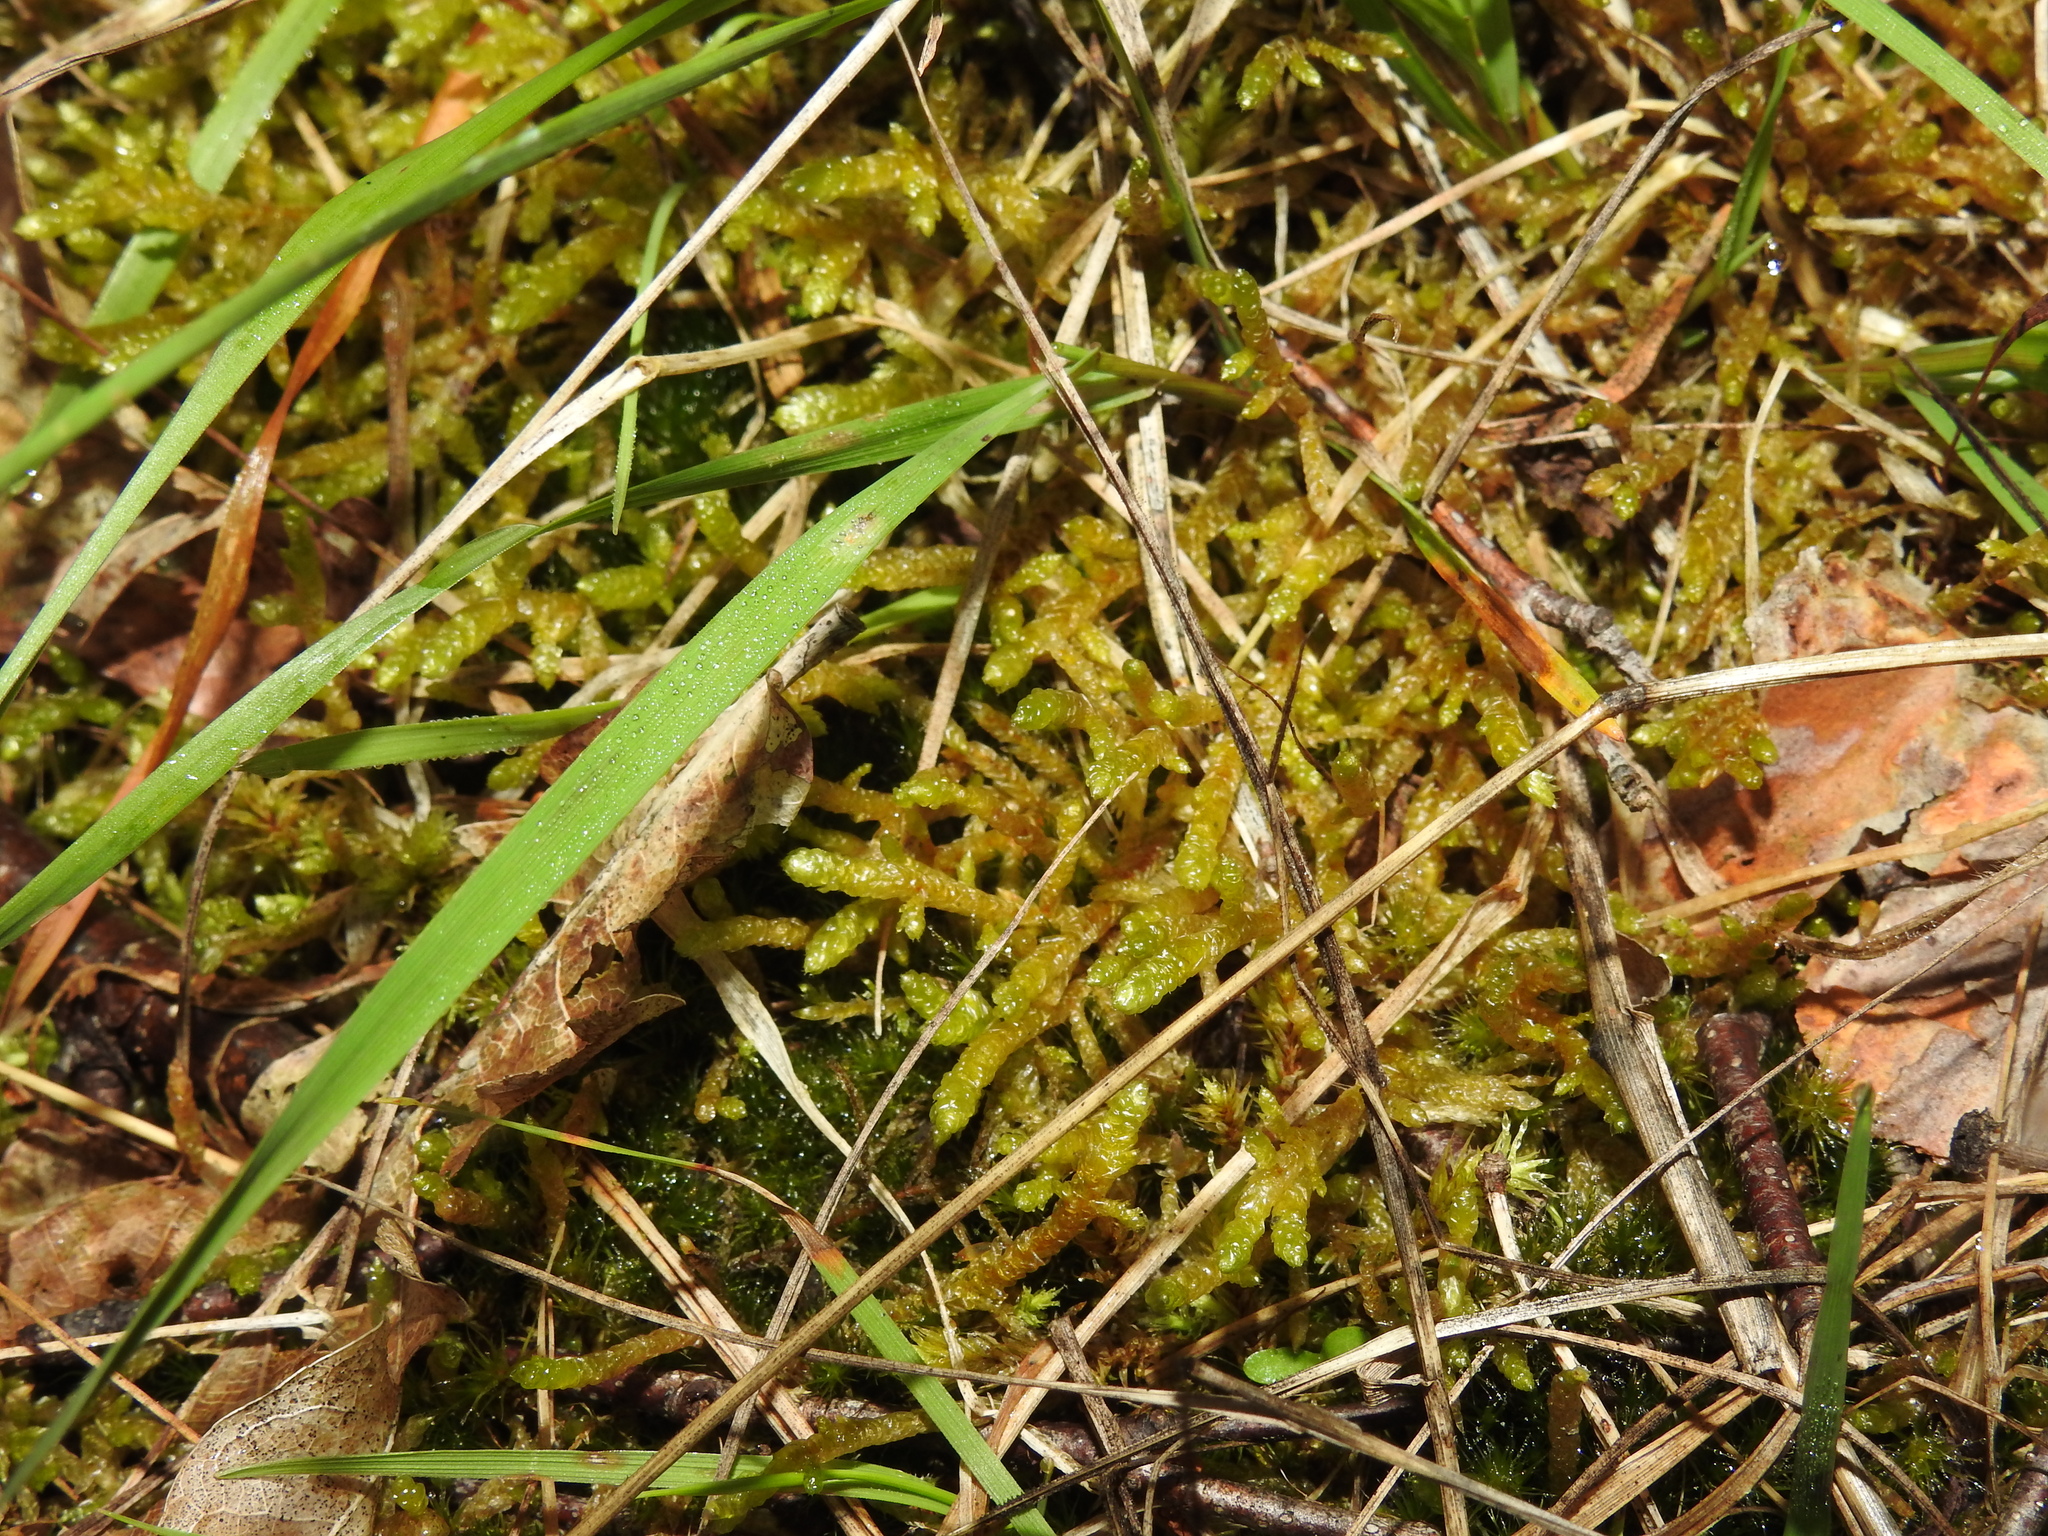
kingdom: Plantae
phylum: Bryophyta
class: Bryopsida
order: Hypnales
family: Brachytheciaceae
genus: Pseudoscleropodium
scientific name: Pseudoscleropodium purum
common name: Neat feather-moss
